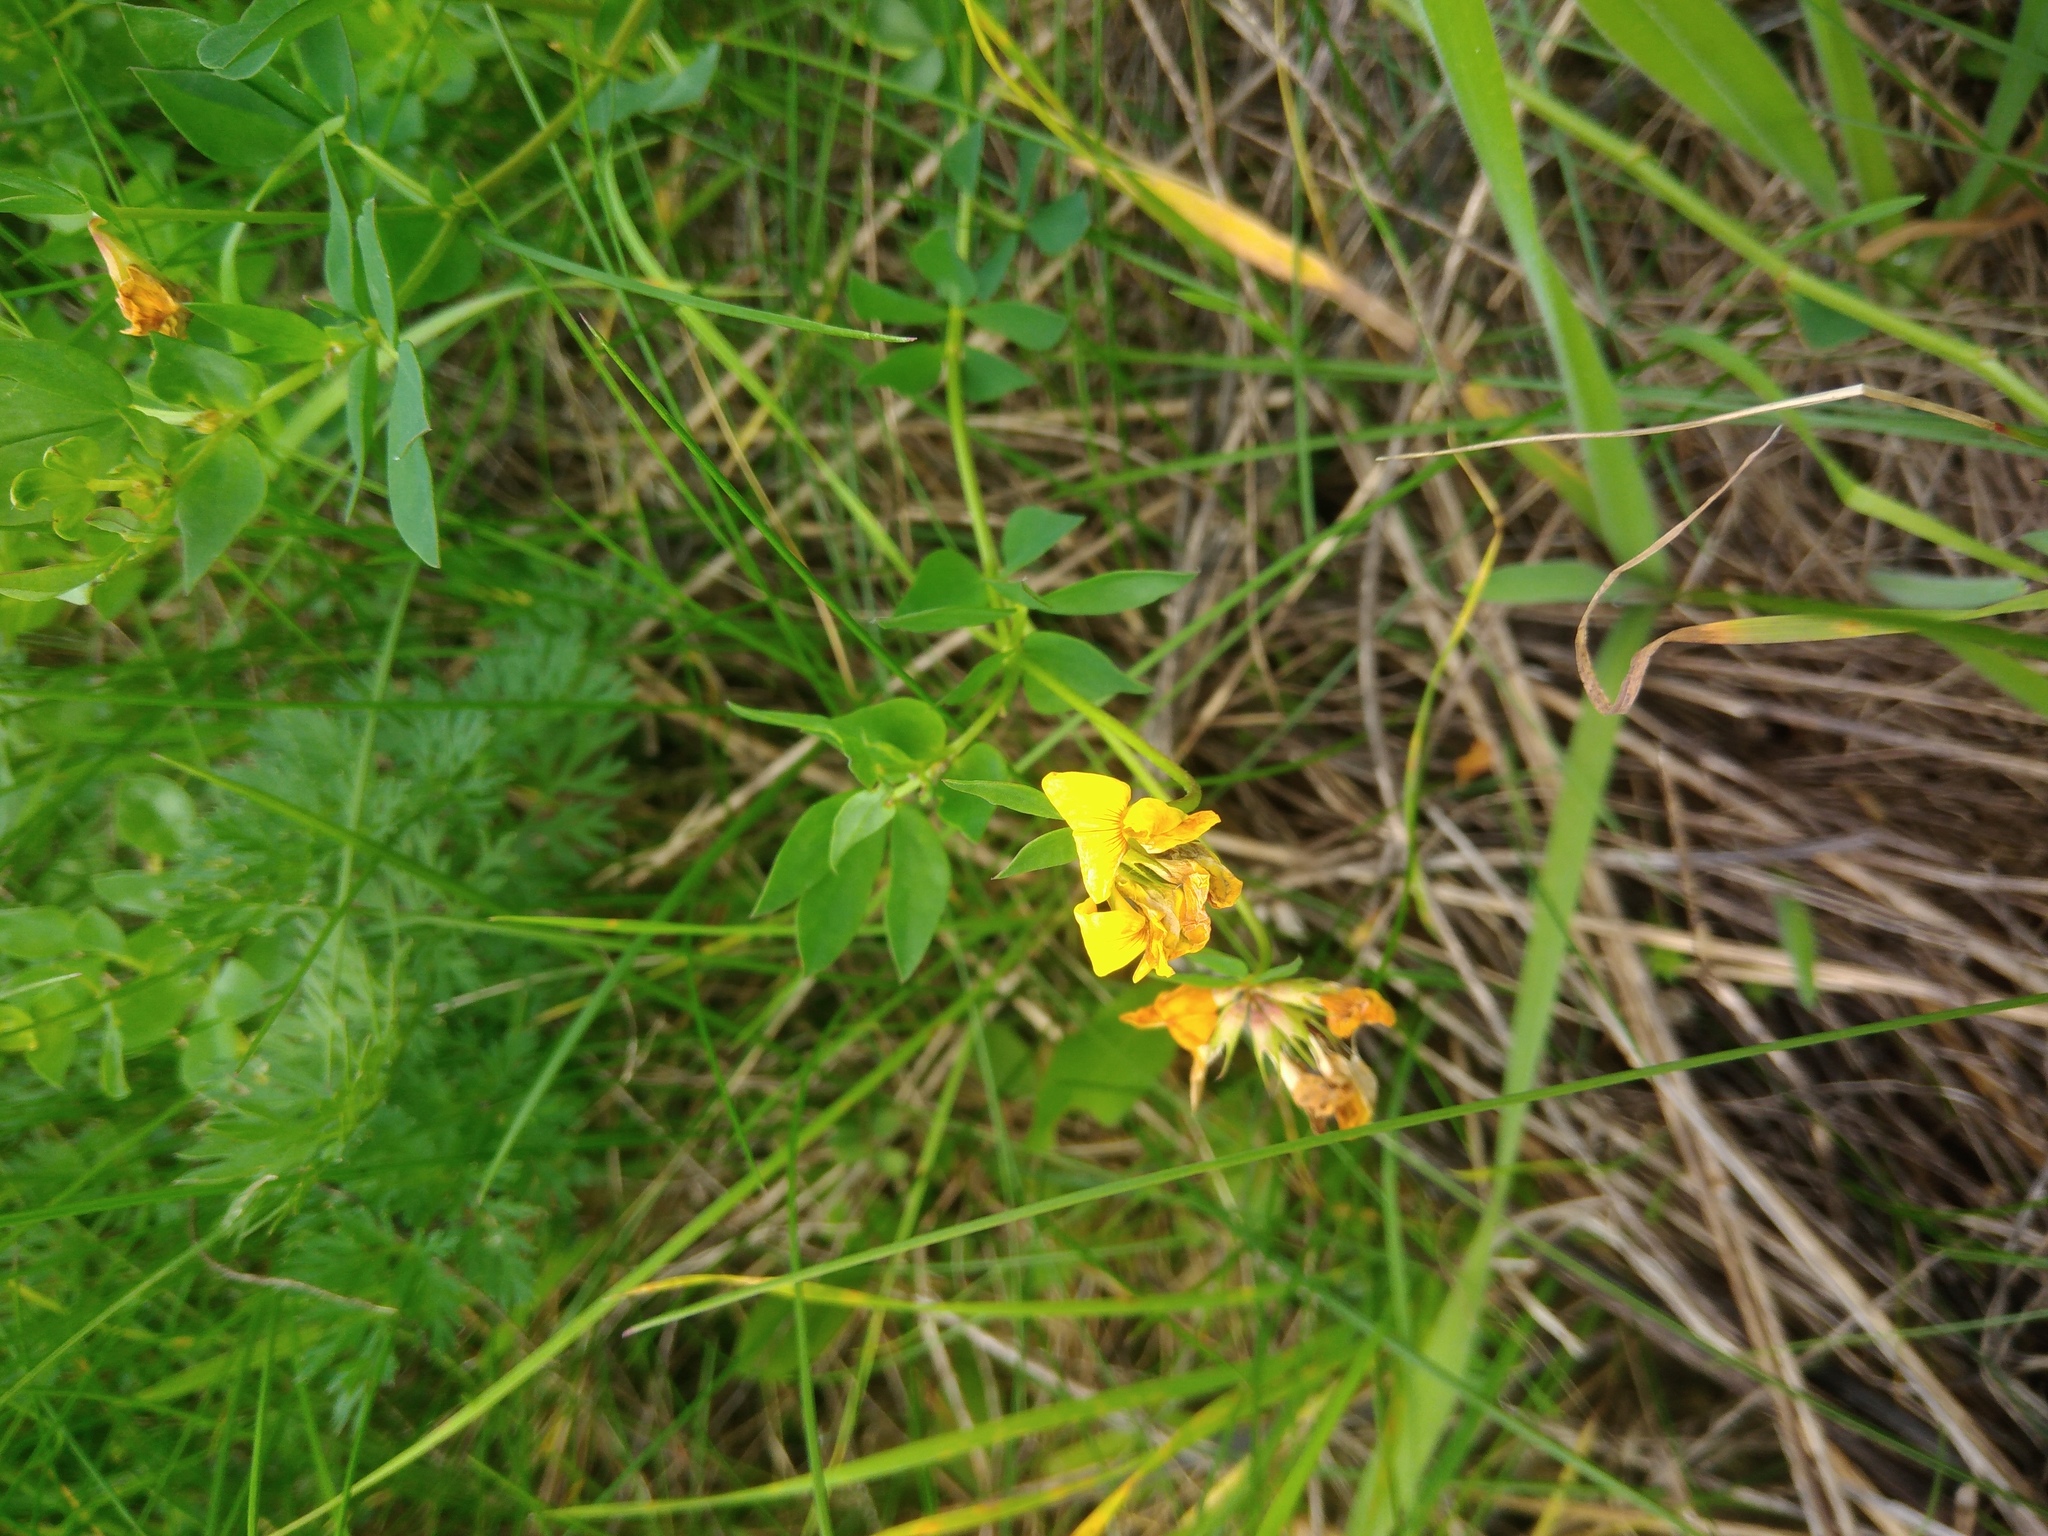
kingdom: Plantae
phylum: Tracheophyta
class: Magnoliopsida
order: Fabales
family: Fabaceae
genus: Lotus
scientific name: Lotus corniculatus
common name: Common bird's-foot-trefoil
